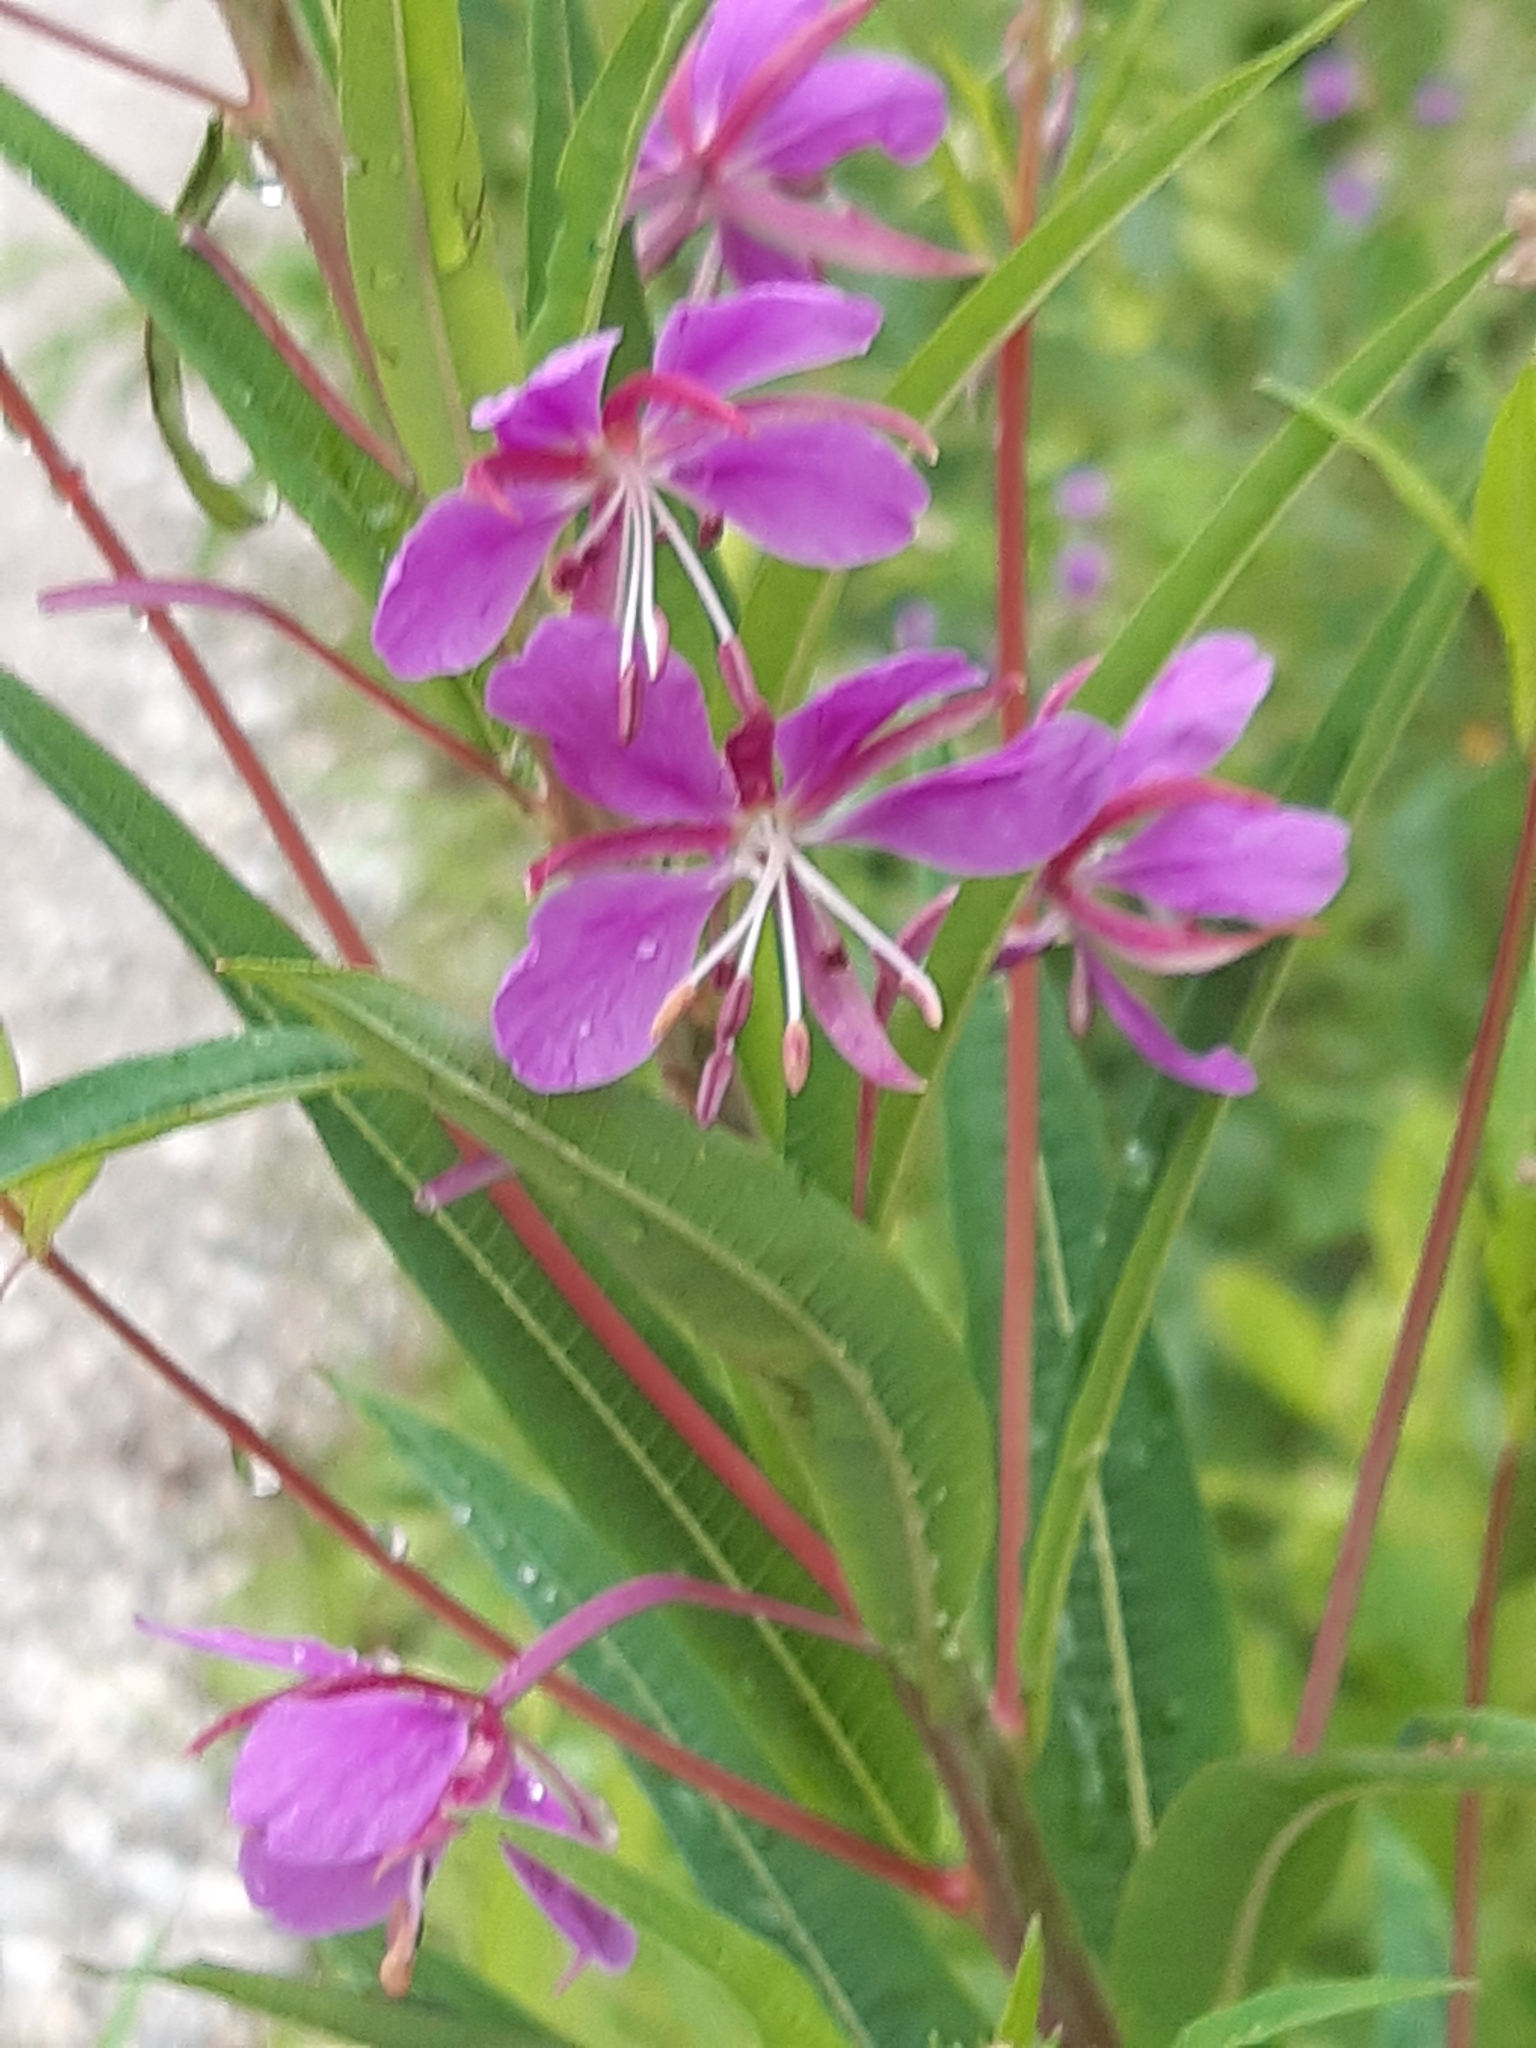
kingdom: Plantae
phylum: Tracheophyta
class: Magnoliopsida
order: Myrtales
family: Onagraceae
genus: Chamaenerion
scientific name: Chamaenerion angustifolium
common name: Fireweed
